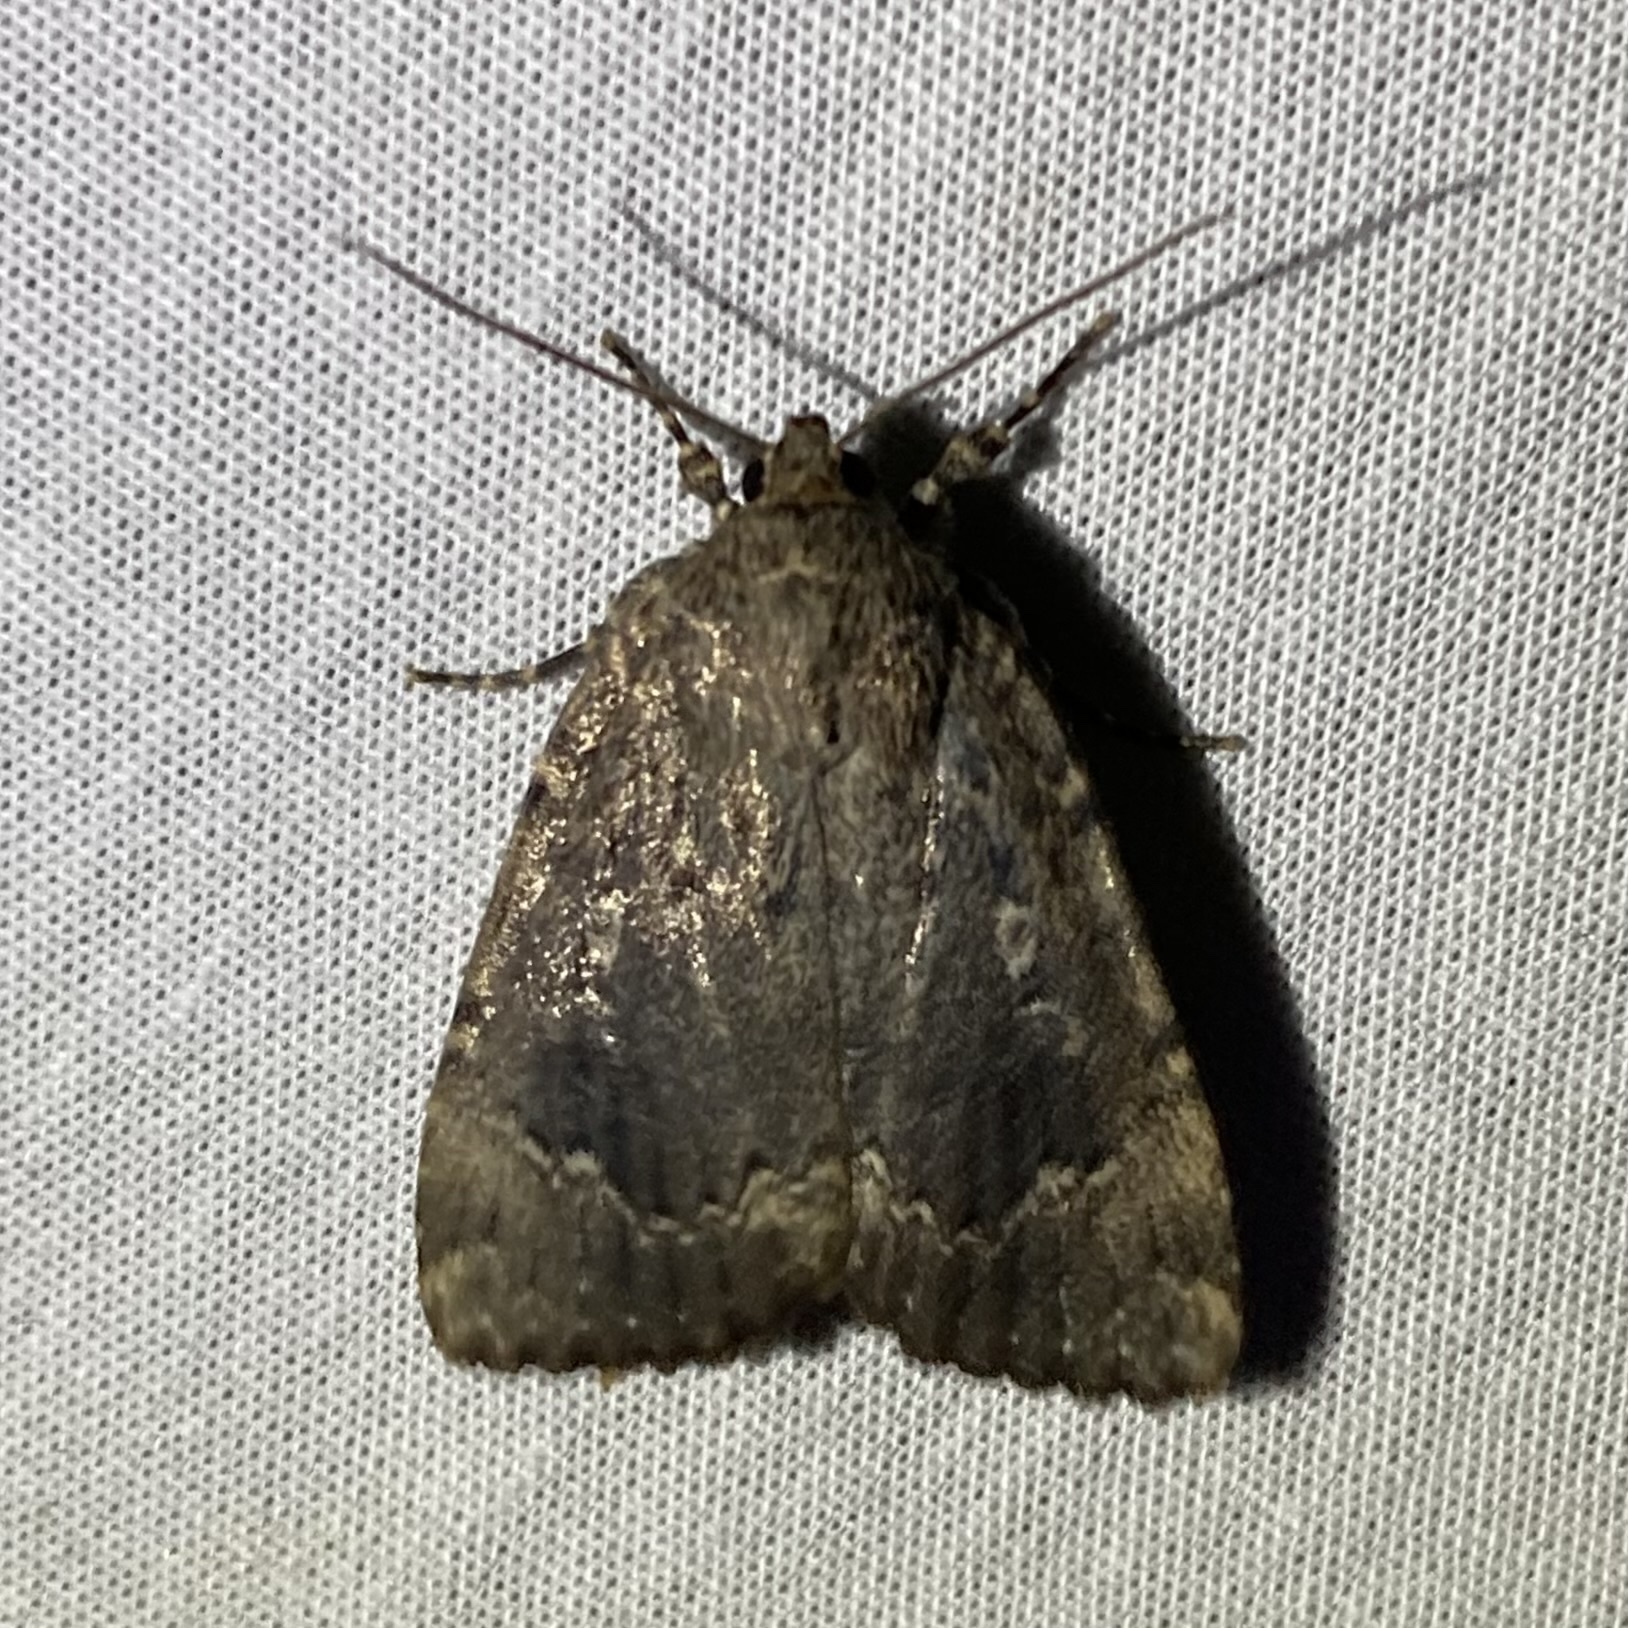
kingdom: Animalia
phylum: Arthropoda
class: Insecta
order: Lepidoptera
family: Noctuidae
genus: Amphipyra
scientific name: Amphipyra pyramidoides
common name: American copper underwing
